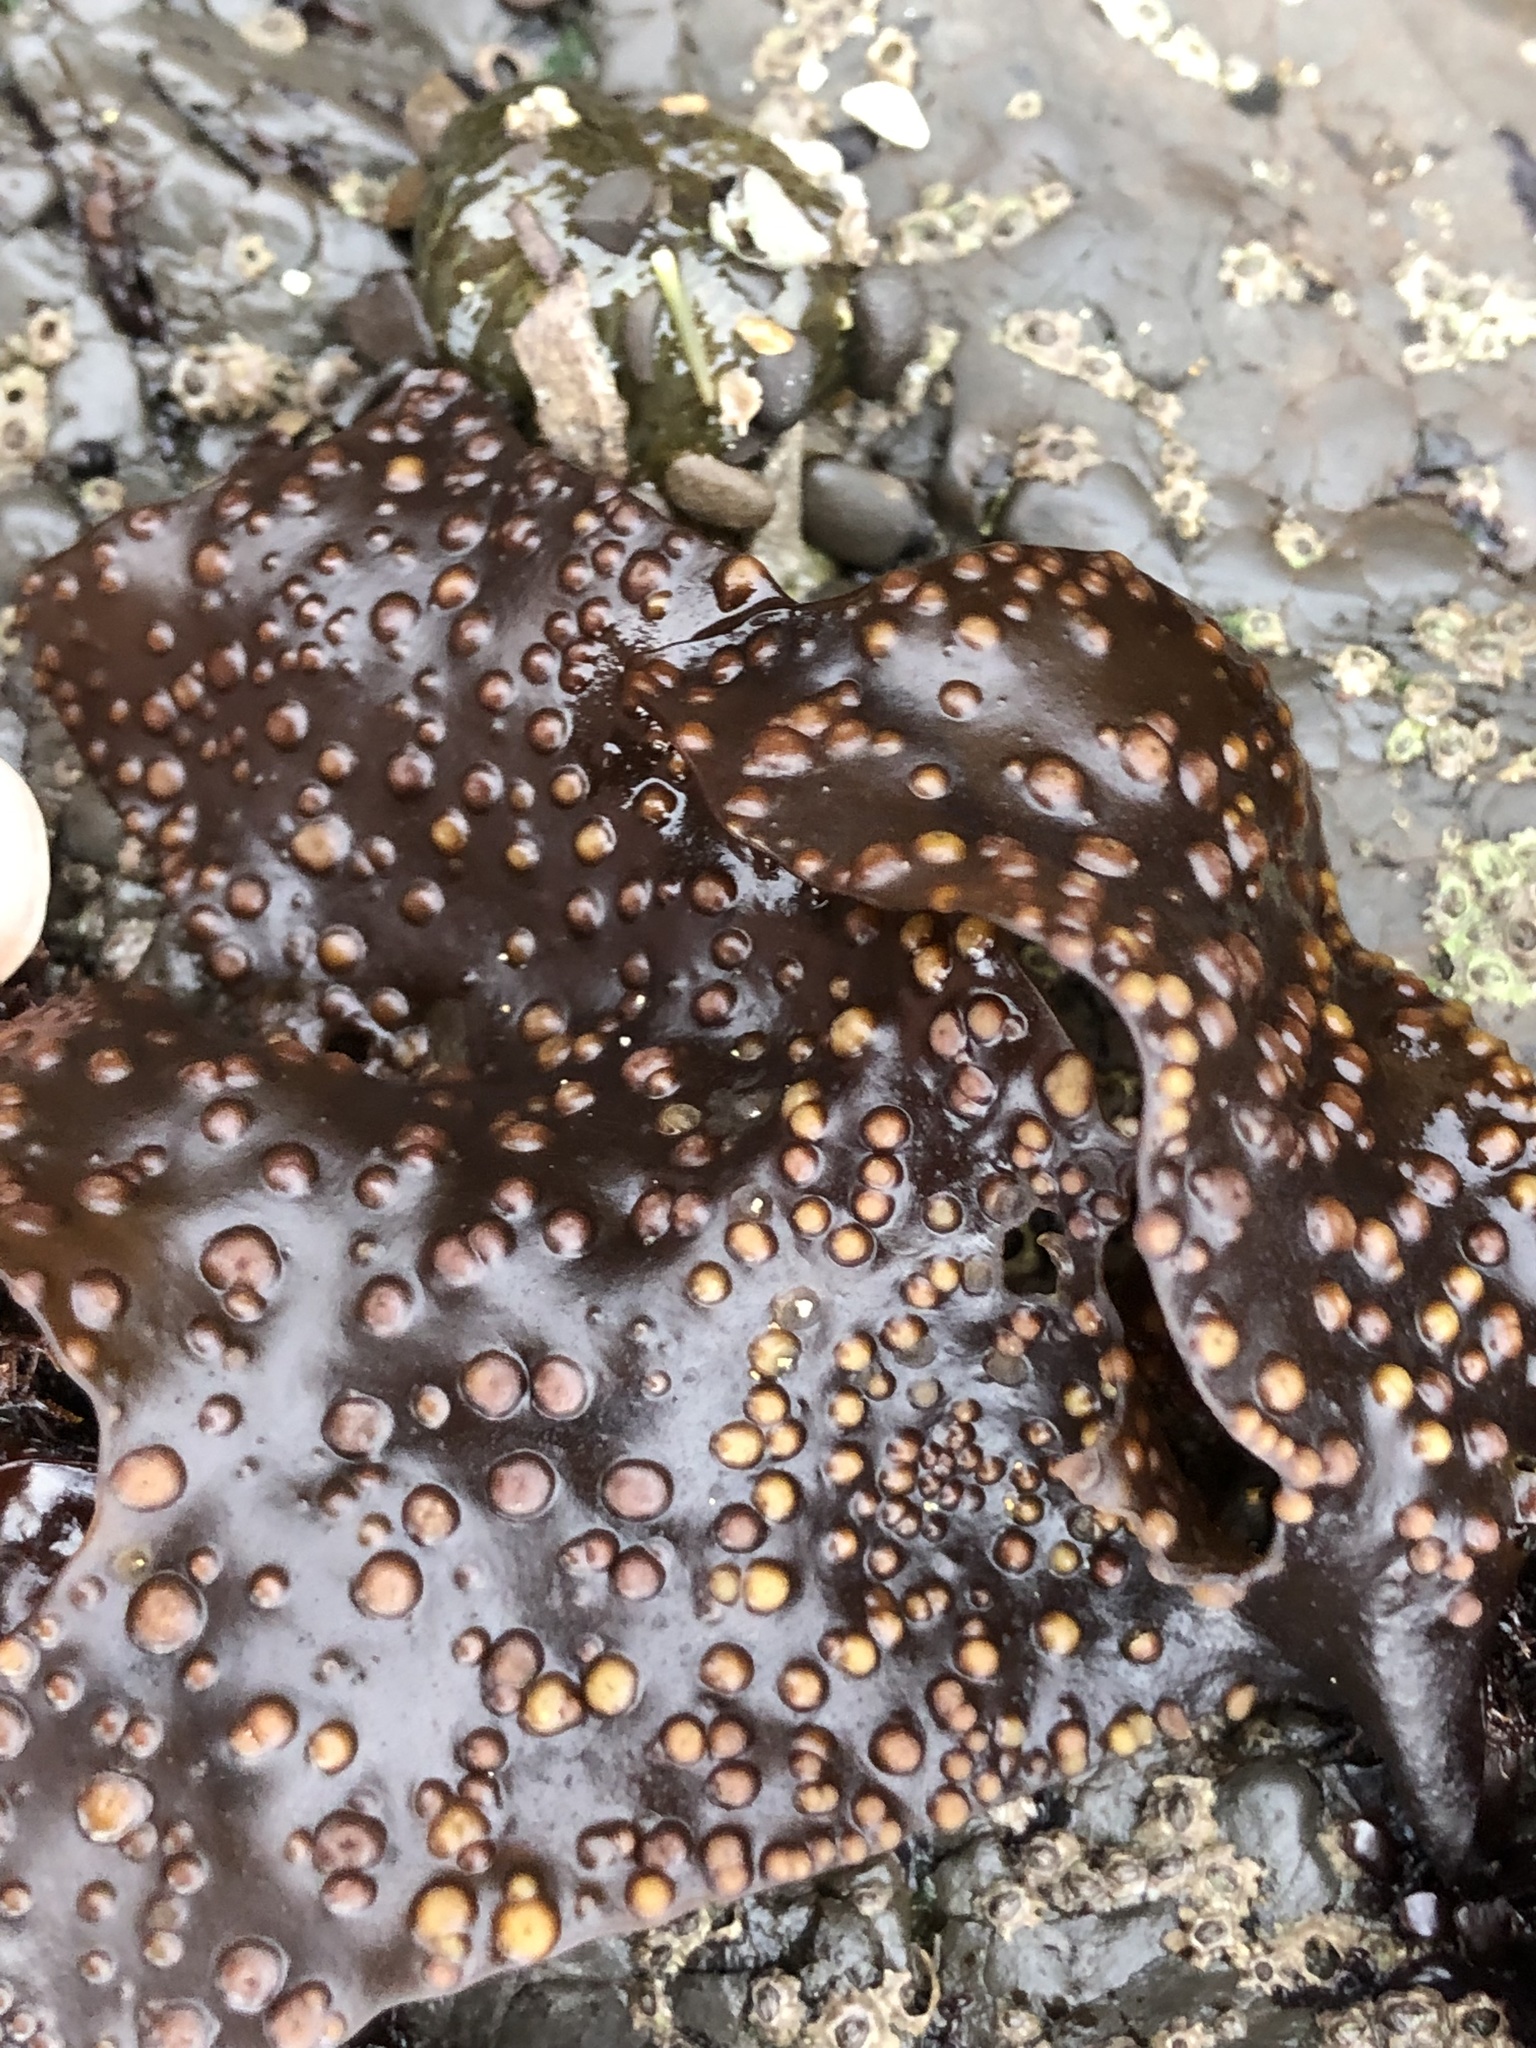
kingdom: Plantae
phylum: Rhodophyta
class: Florideophyceae
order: Gigartinales
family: Gigartinaceae
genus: Mazzaella
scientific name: Mazzaella oregona
